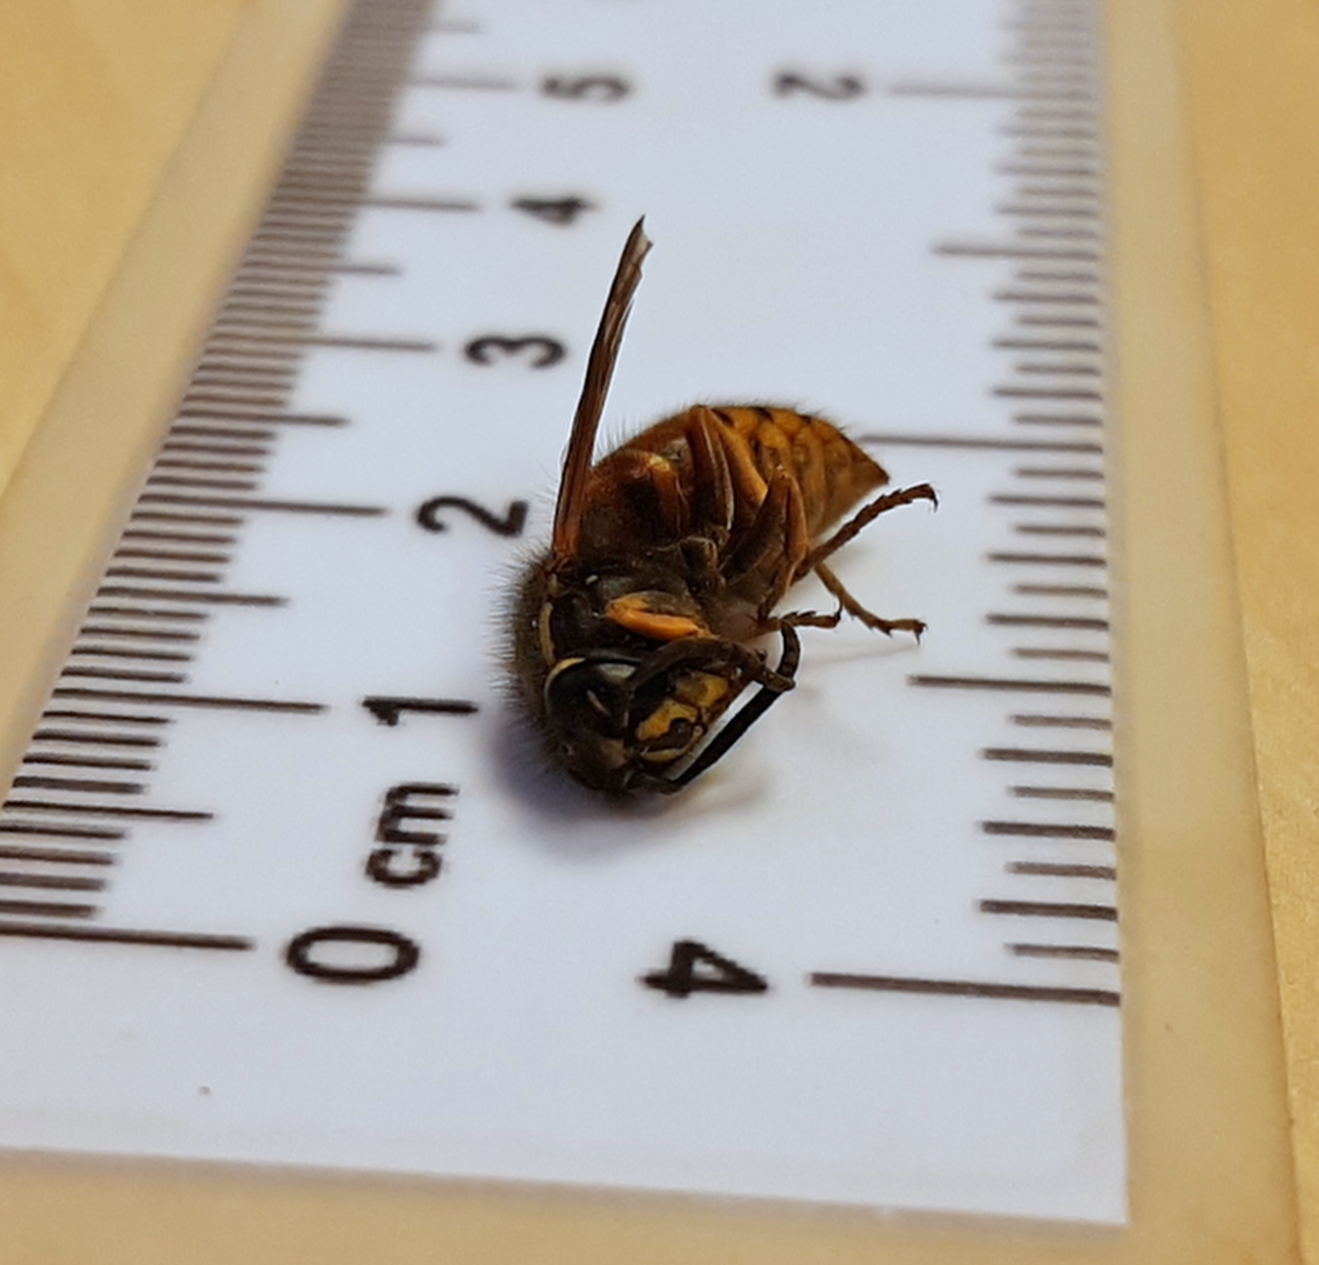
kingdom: Animalia
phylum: Arthropoda
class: Insecta
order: Hymenoptera
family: Vespidae
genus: Vespula
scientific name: Vespula rufa
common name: Red wasp
